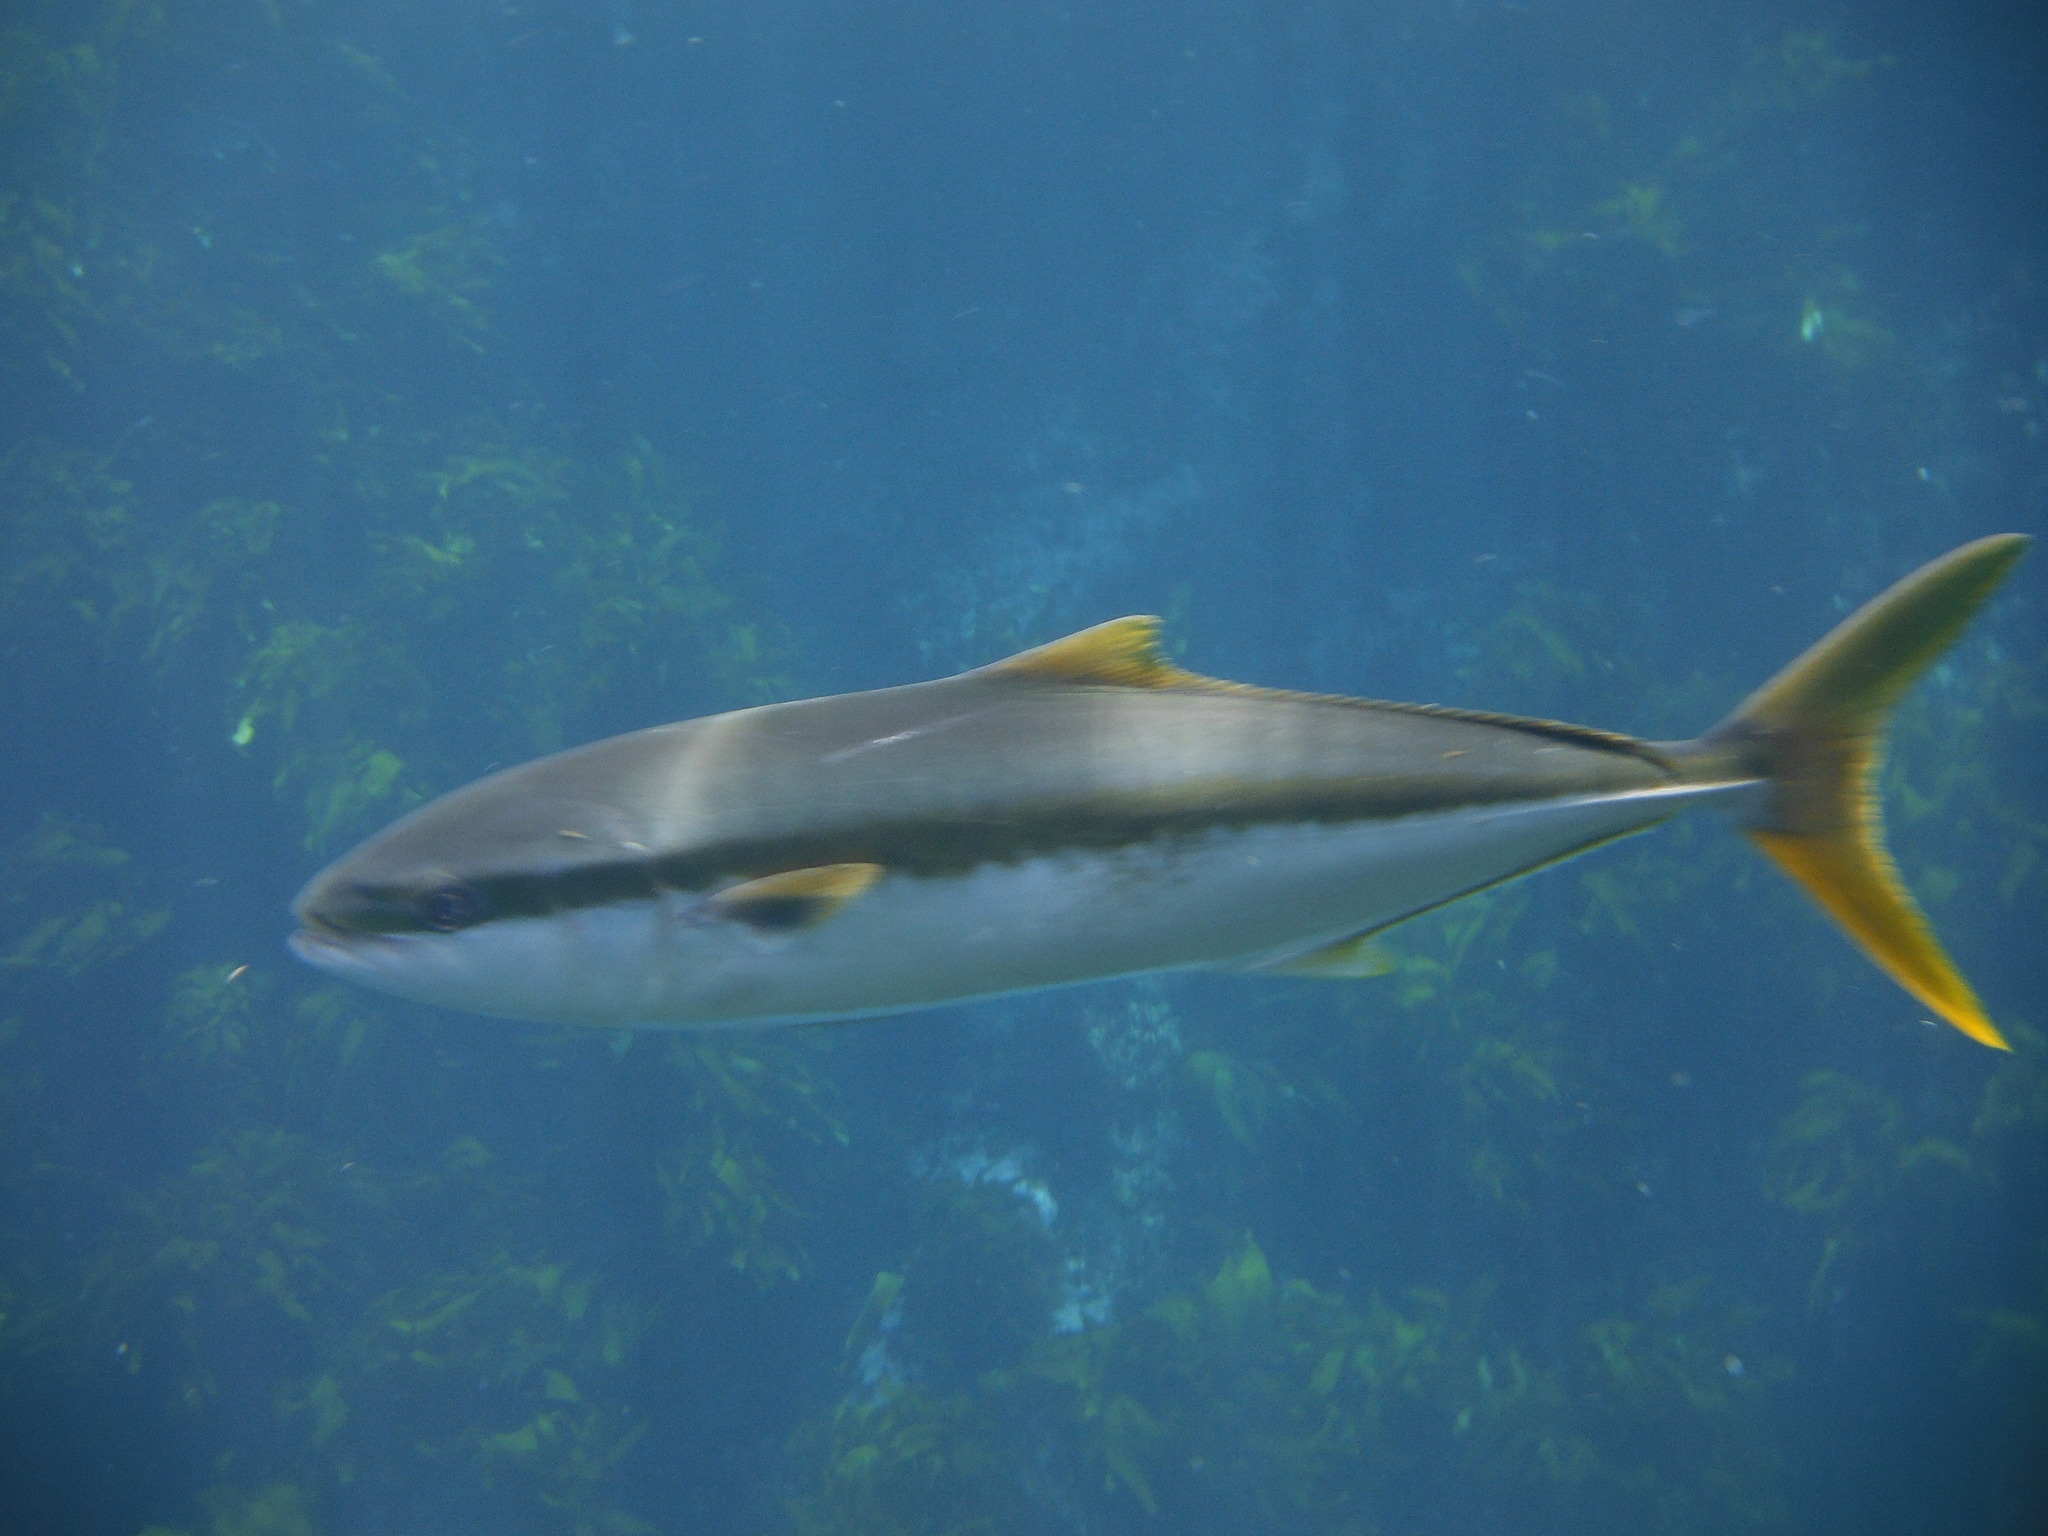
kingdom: Animalia
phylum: Chordata
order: Perciformes
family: Carangidae
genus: Seriola
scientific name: Seriola lalandi
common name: Yellowtail kingfish
